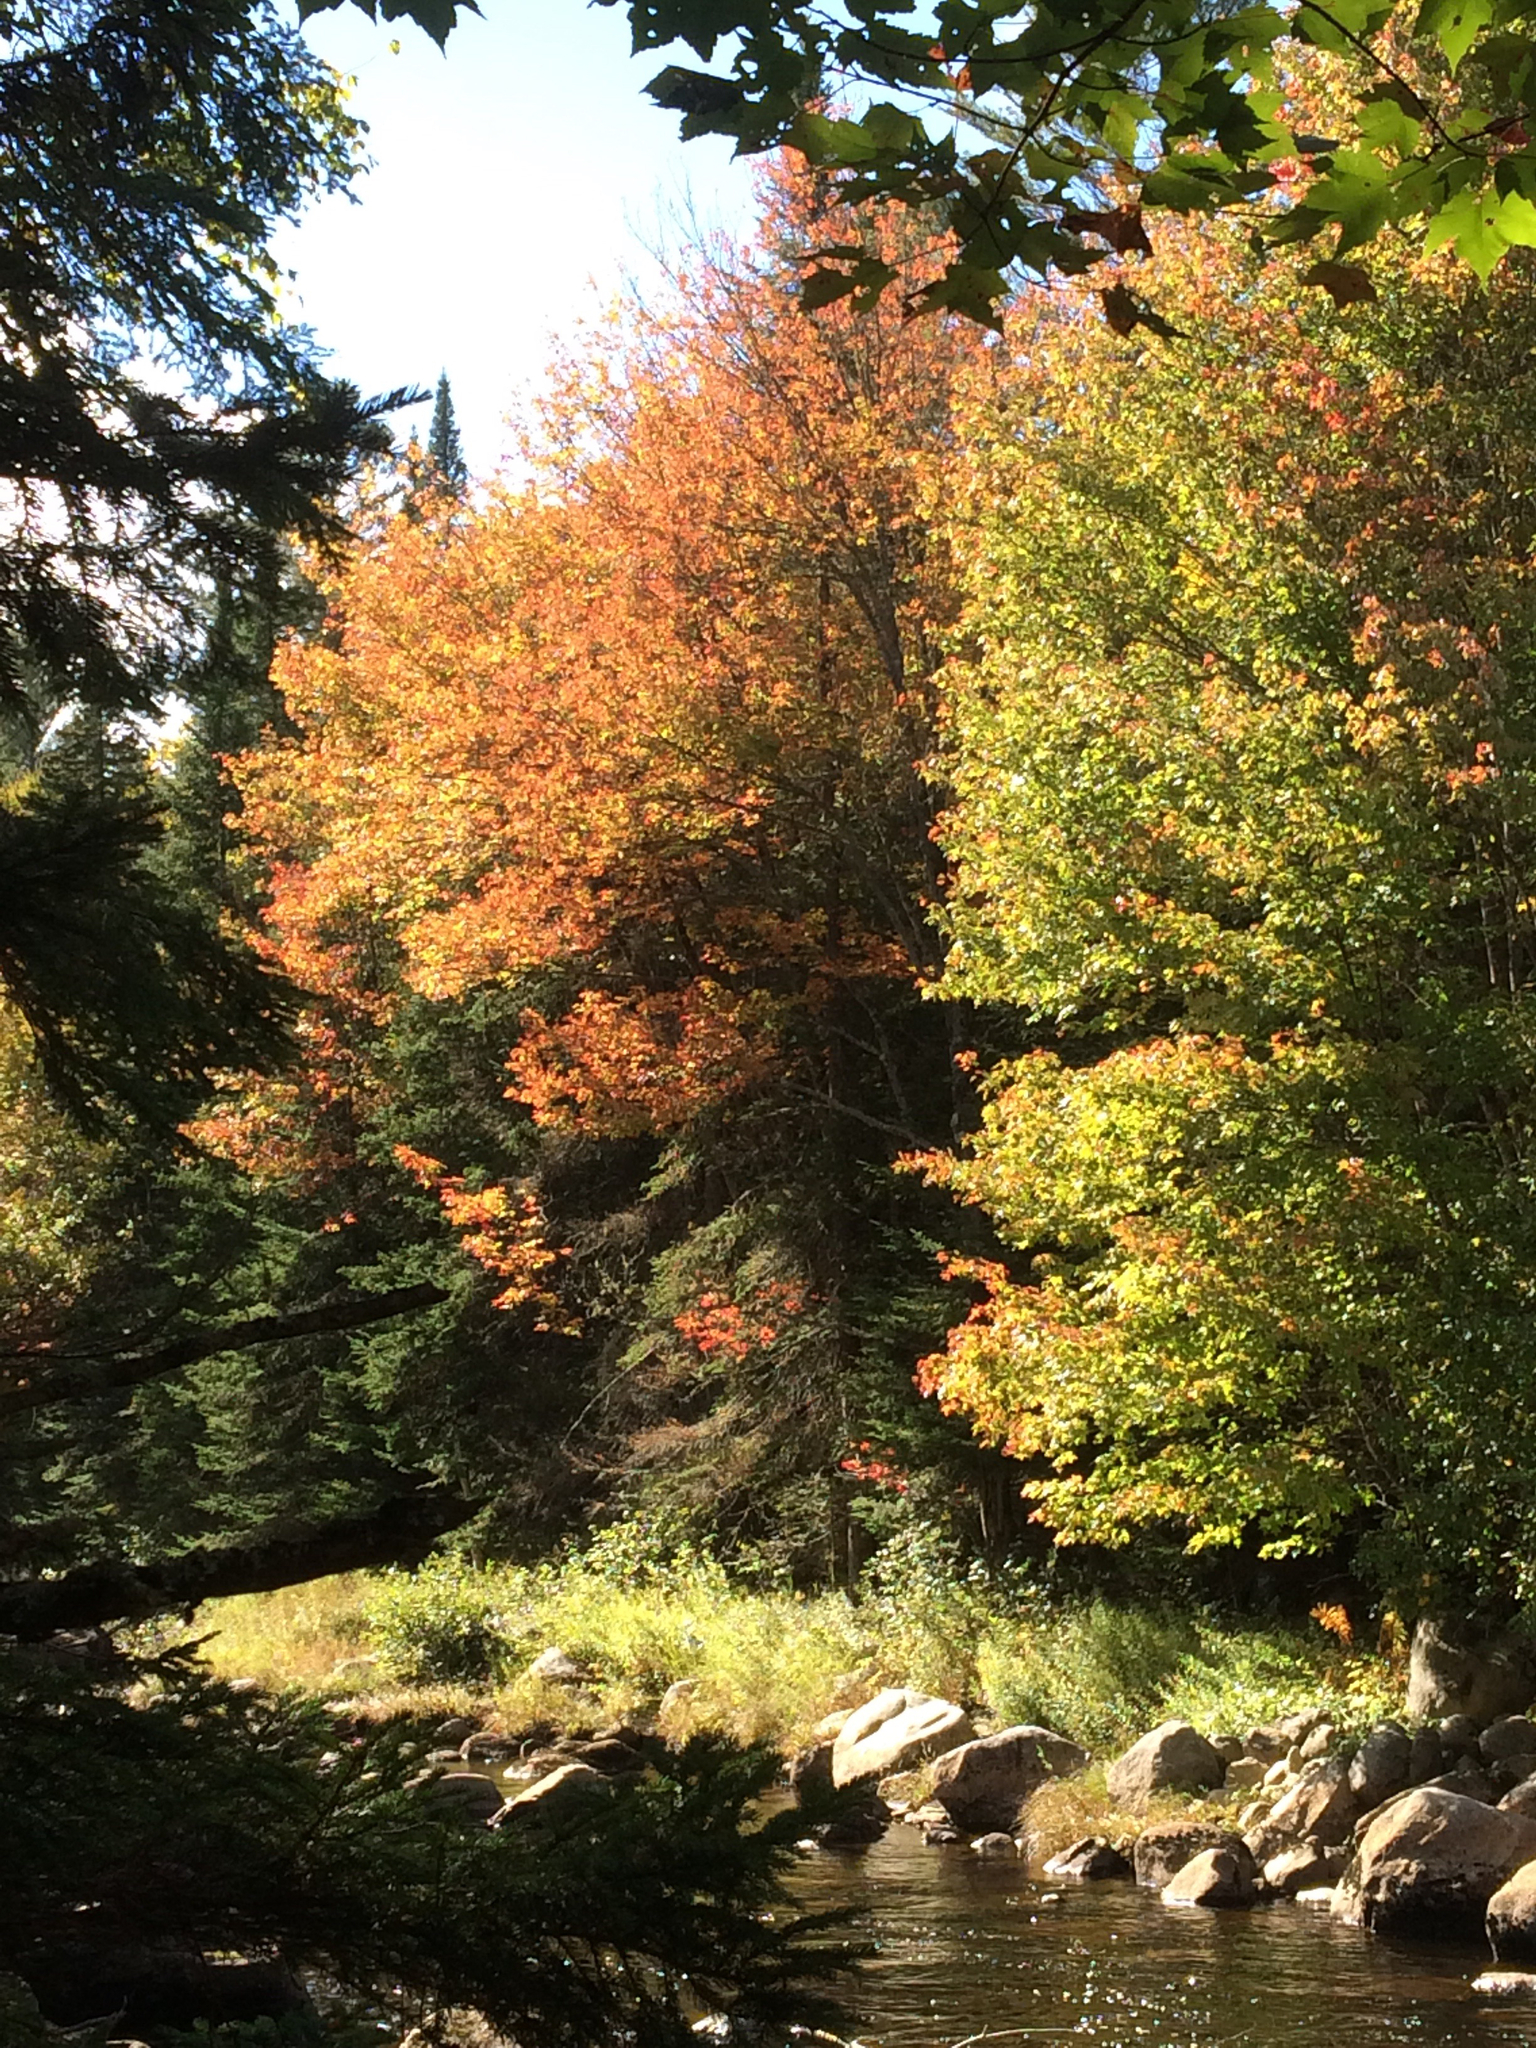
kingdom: Plantae
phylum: Tracheophyta
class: Magnoliopsida
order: Sapindales
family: Sapindaceae
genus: Acer
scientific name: Acer rubrum
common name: Red maple
